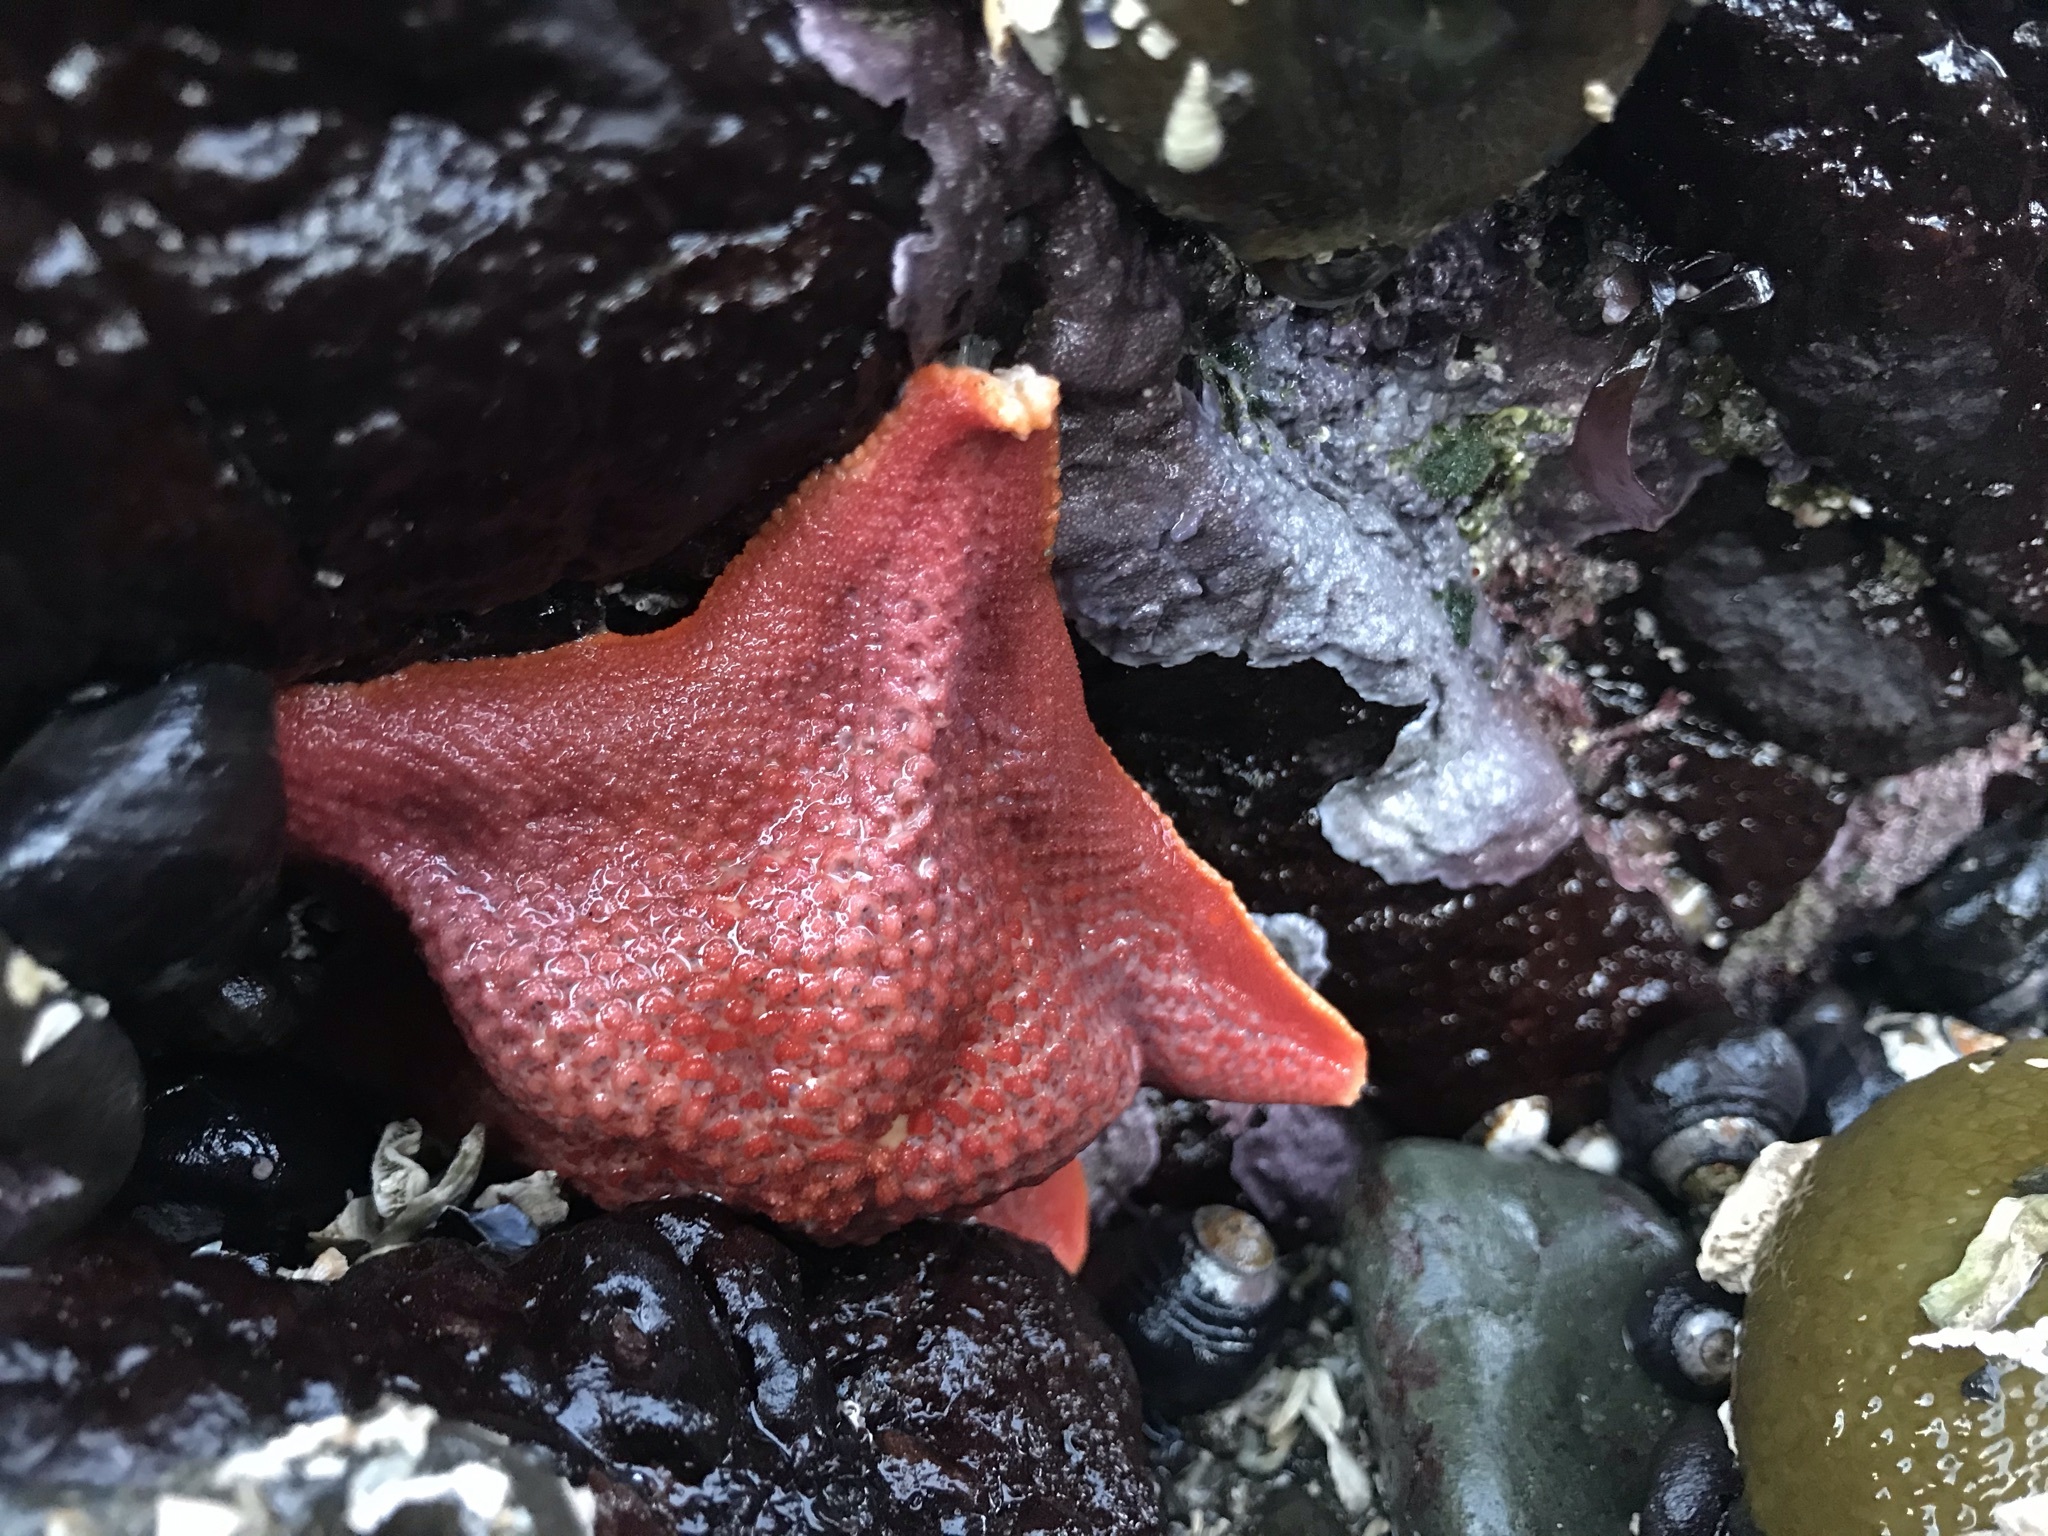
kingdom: Animalia
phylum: Echinodermata
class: Asteroidea
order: Valvatida
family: Asterinidae
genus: Patiria
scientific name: Patiria miniata
